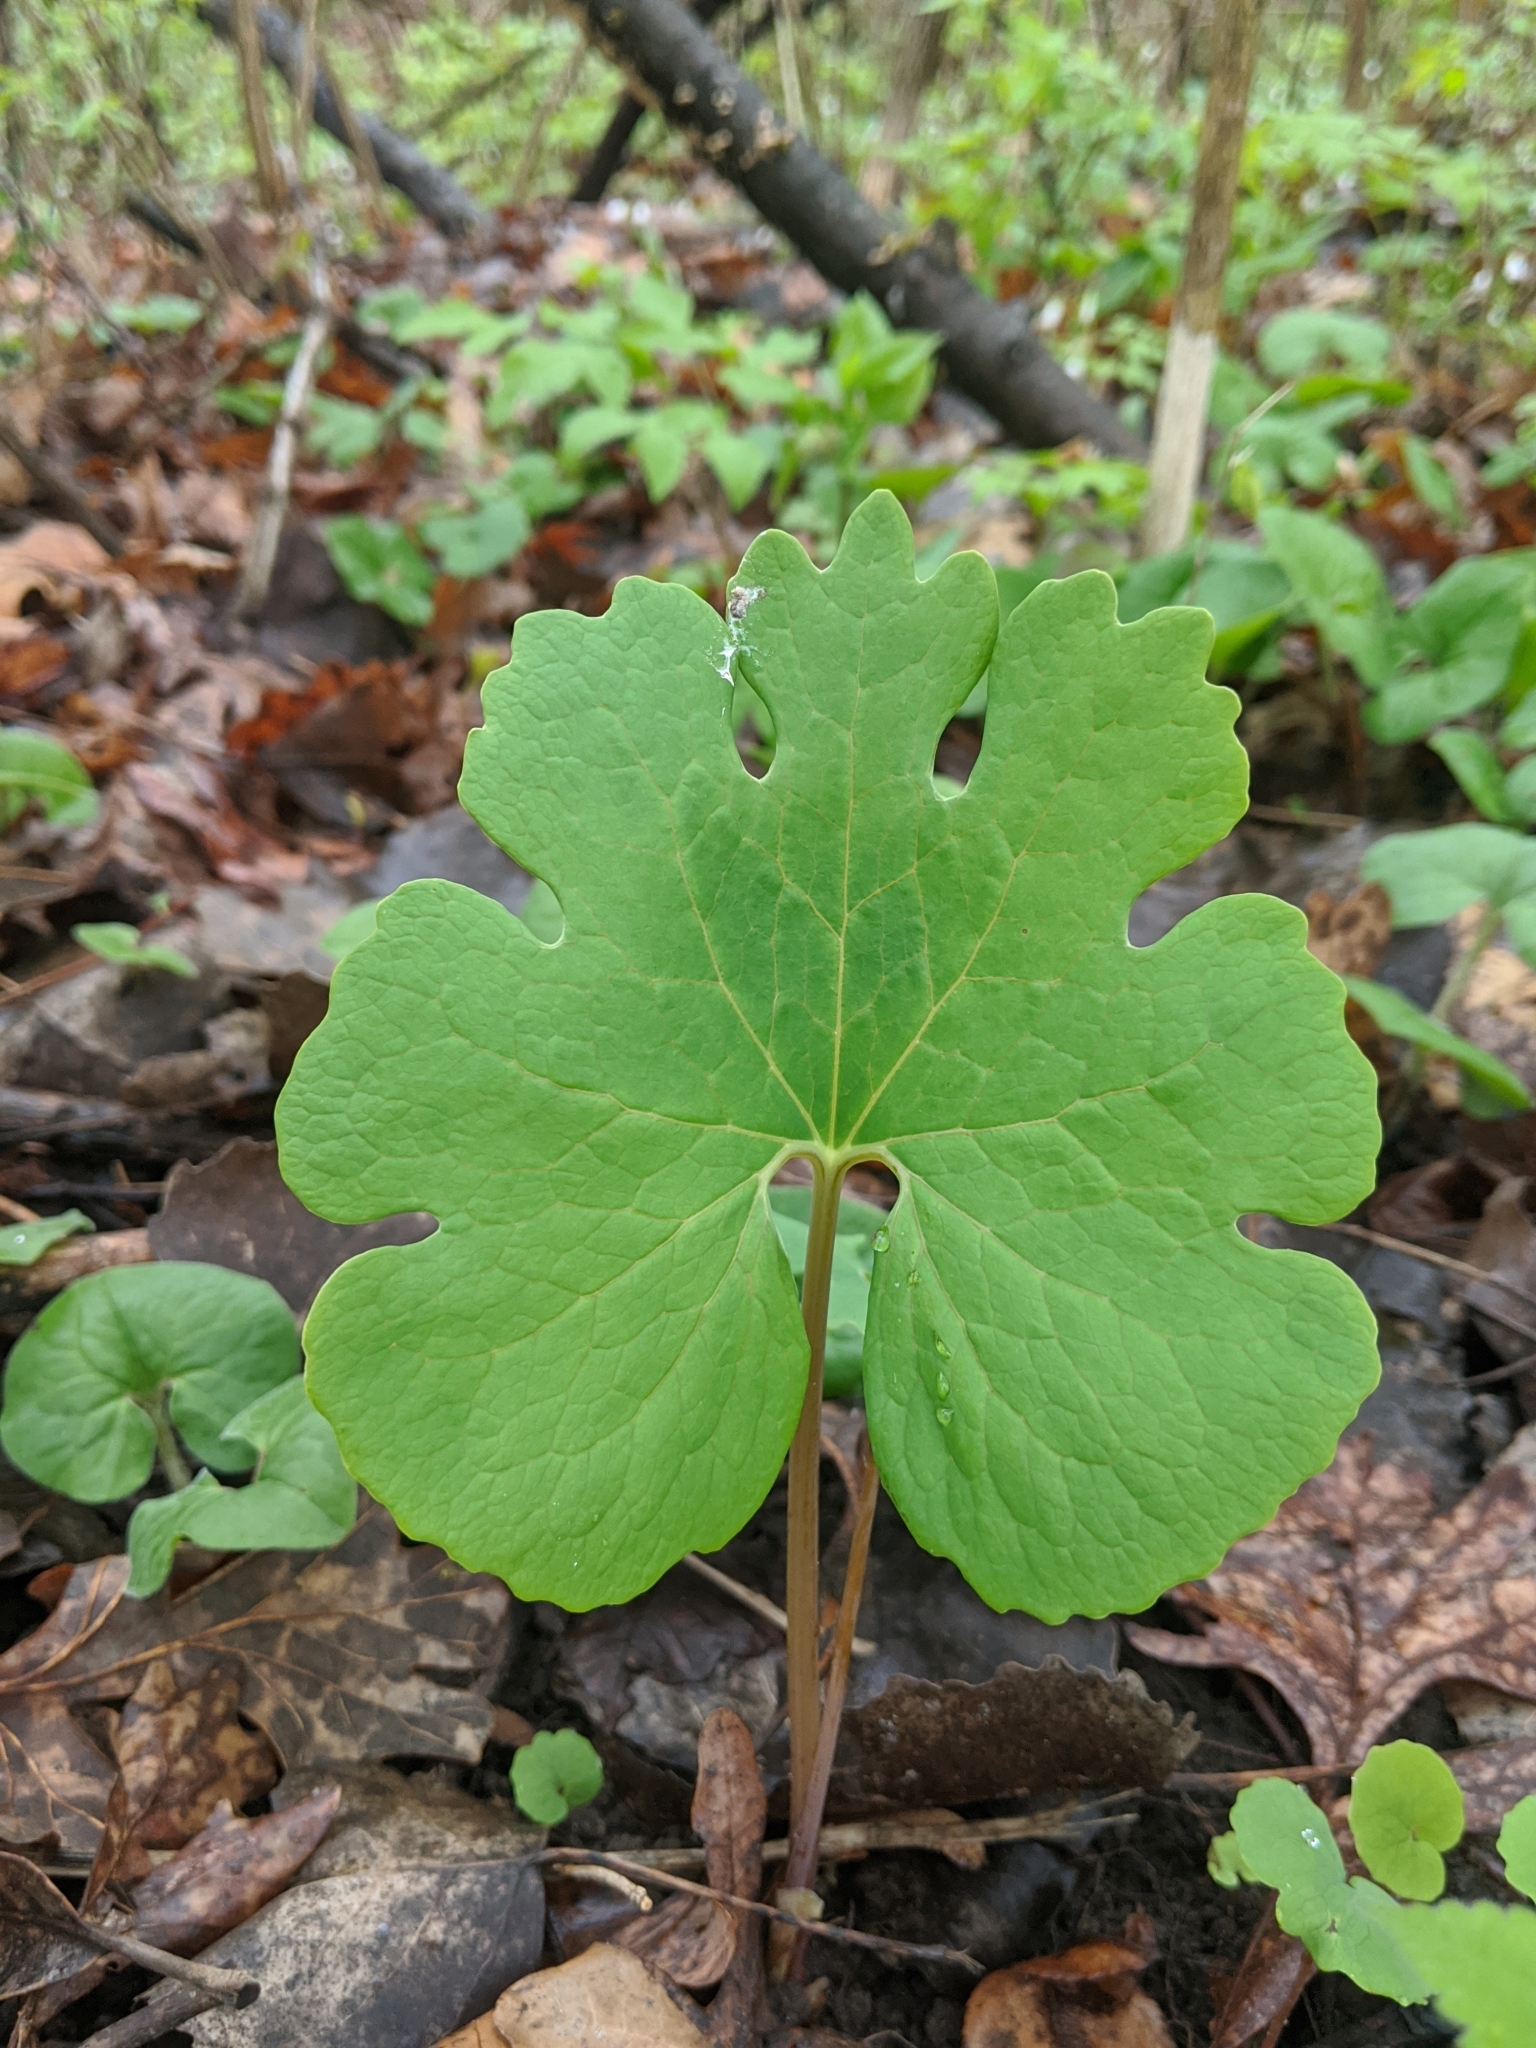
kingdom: Plantae
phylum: Tracheophyta
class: Magnoliopsida
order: Ranunculales
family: Papaveraceae
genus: Sanguinaria
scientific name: Sanguinaria canadensis
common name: Bloodroot
